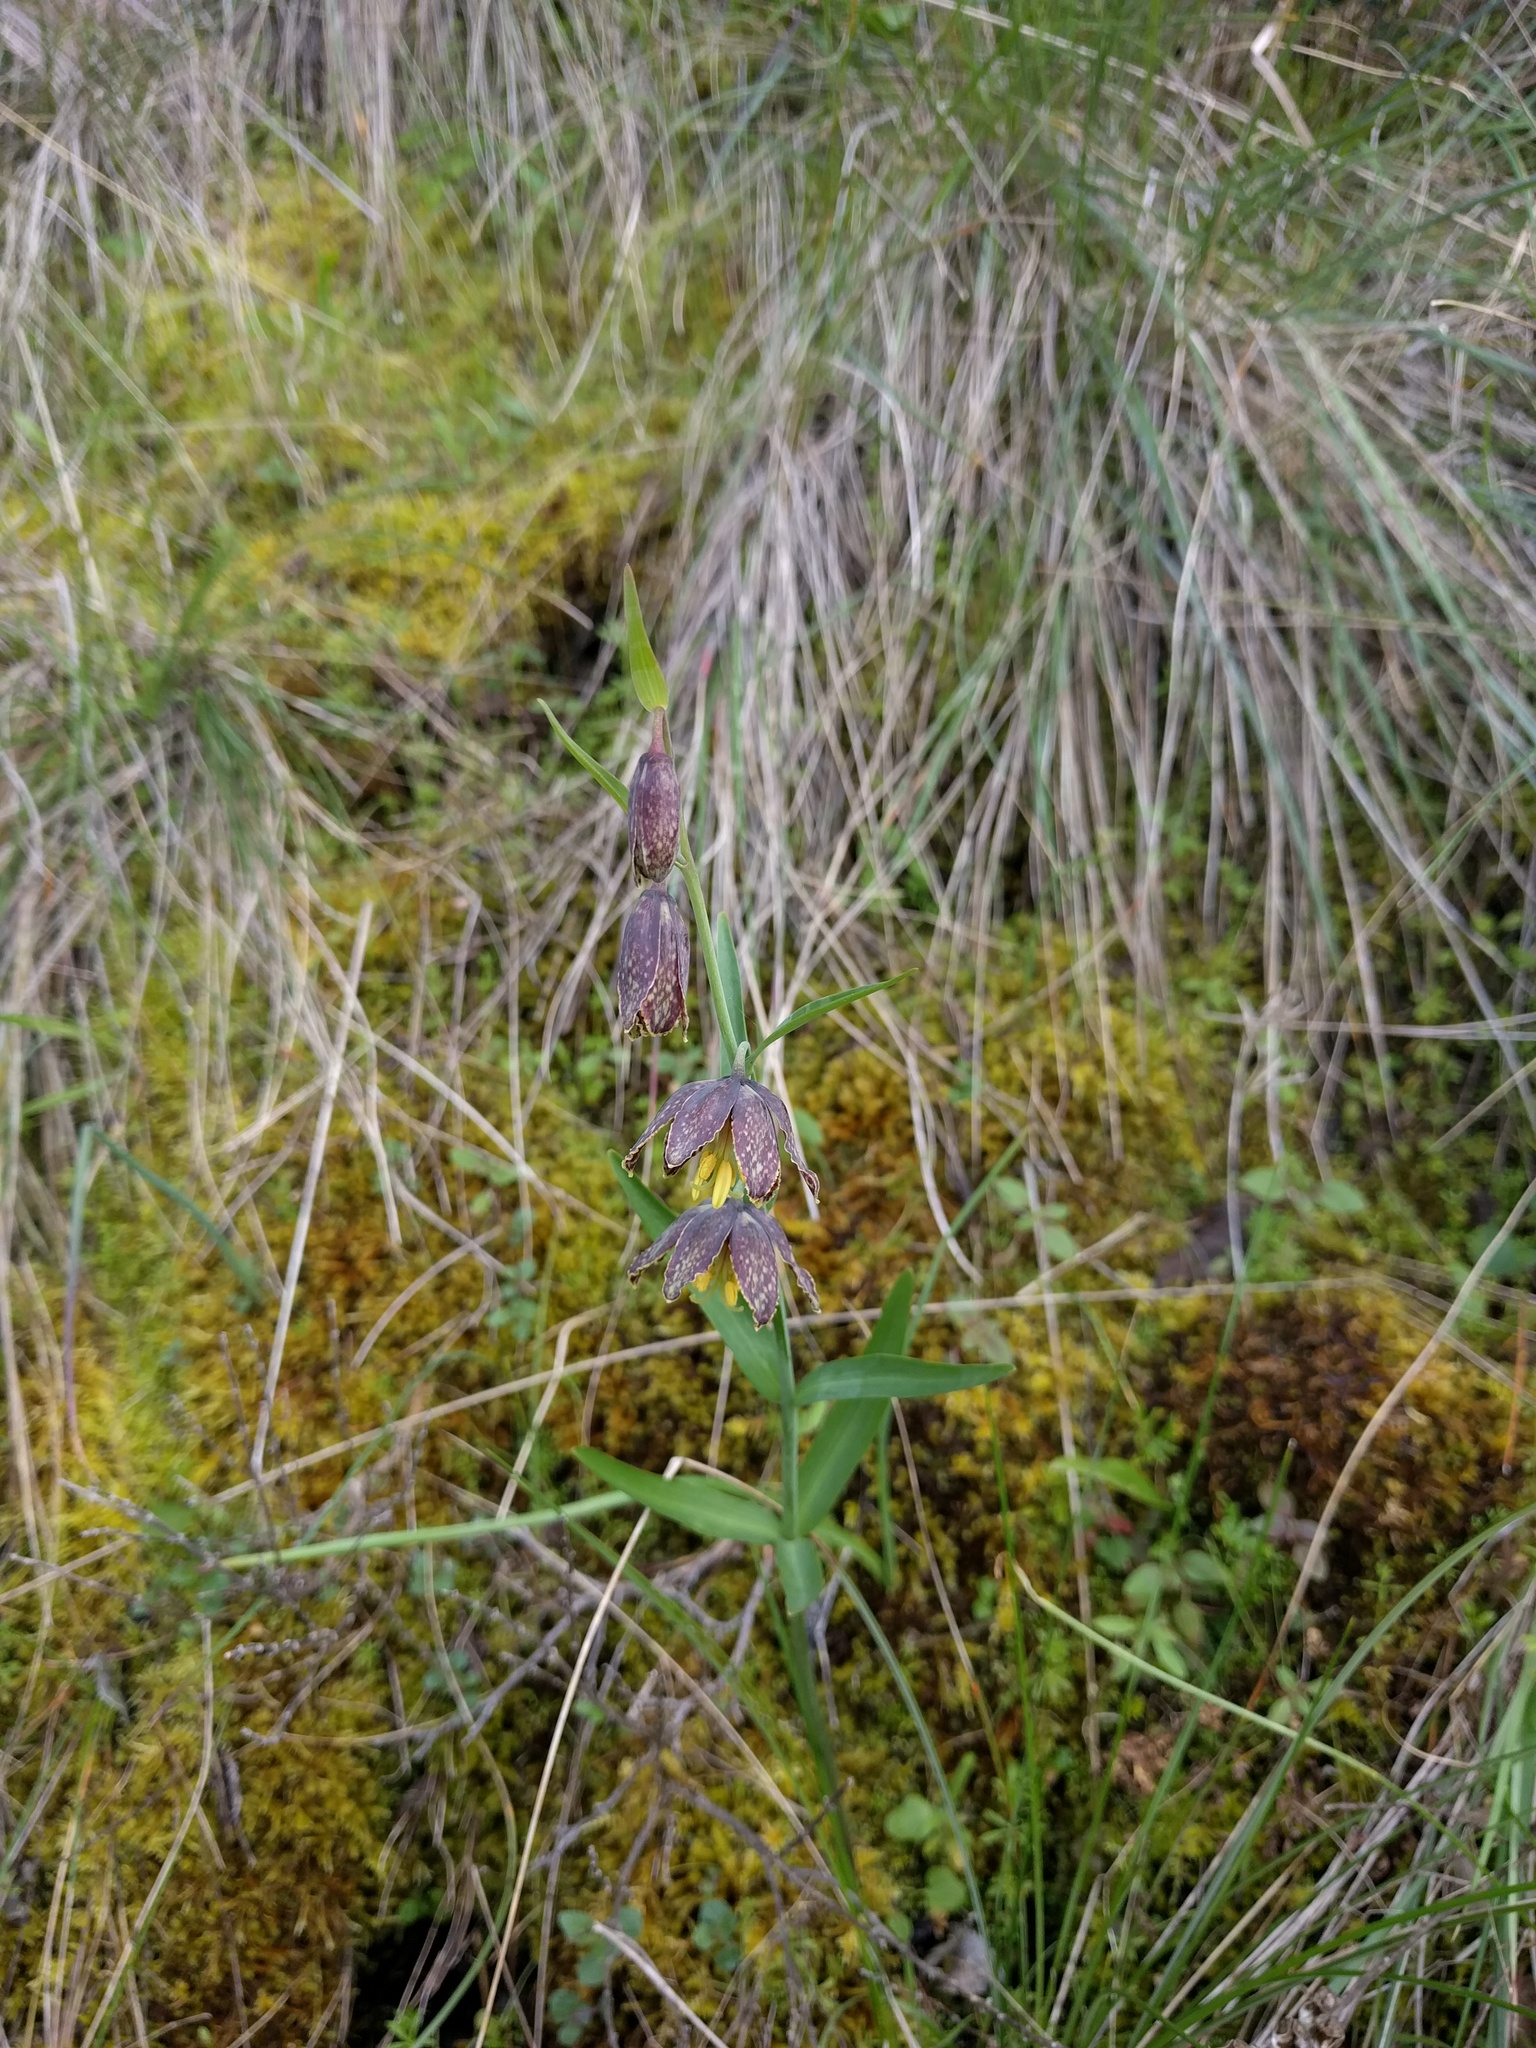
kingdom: Plantae
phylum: Tracheophyta
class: Liliopsida
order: Liliales
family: Liliaceae
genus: Fritillaria
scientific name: Fritillaria affinis
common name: Ojai fritillary
